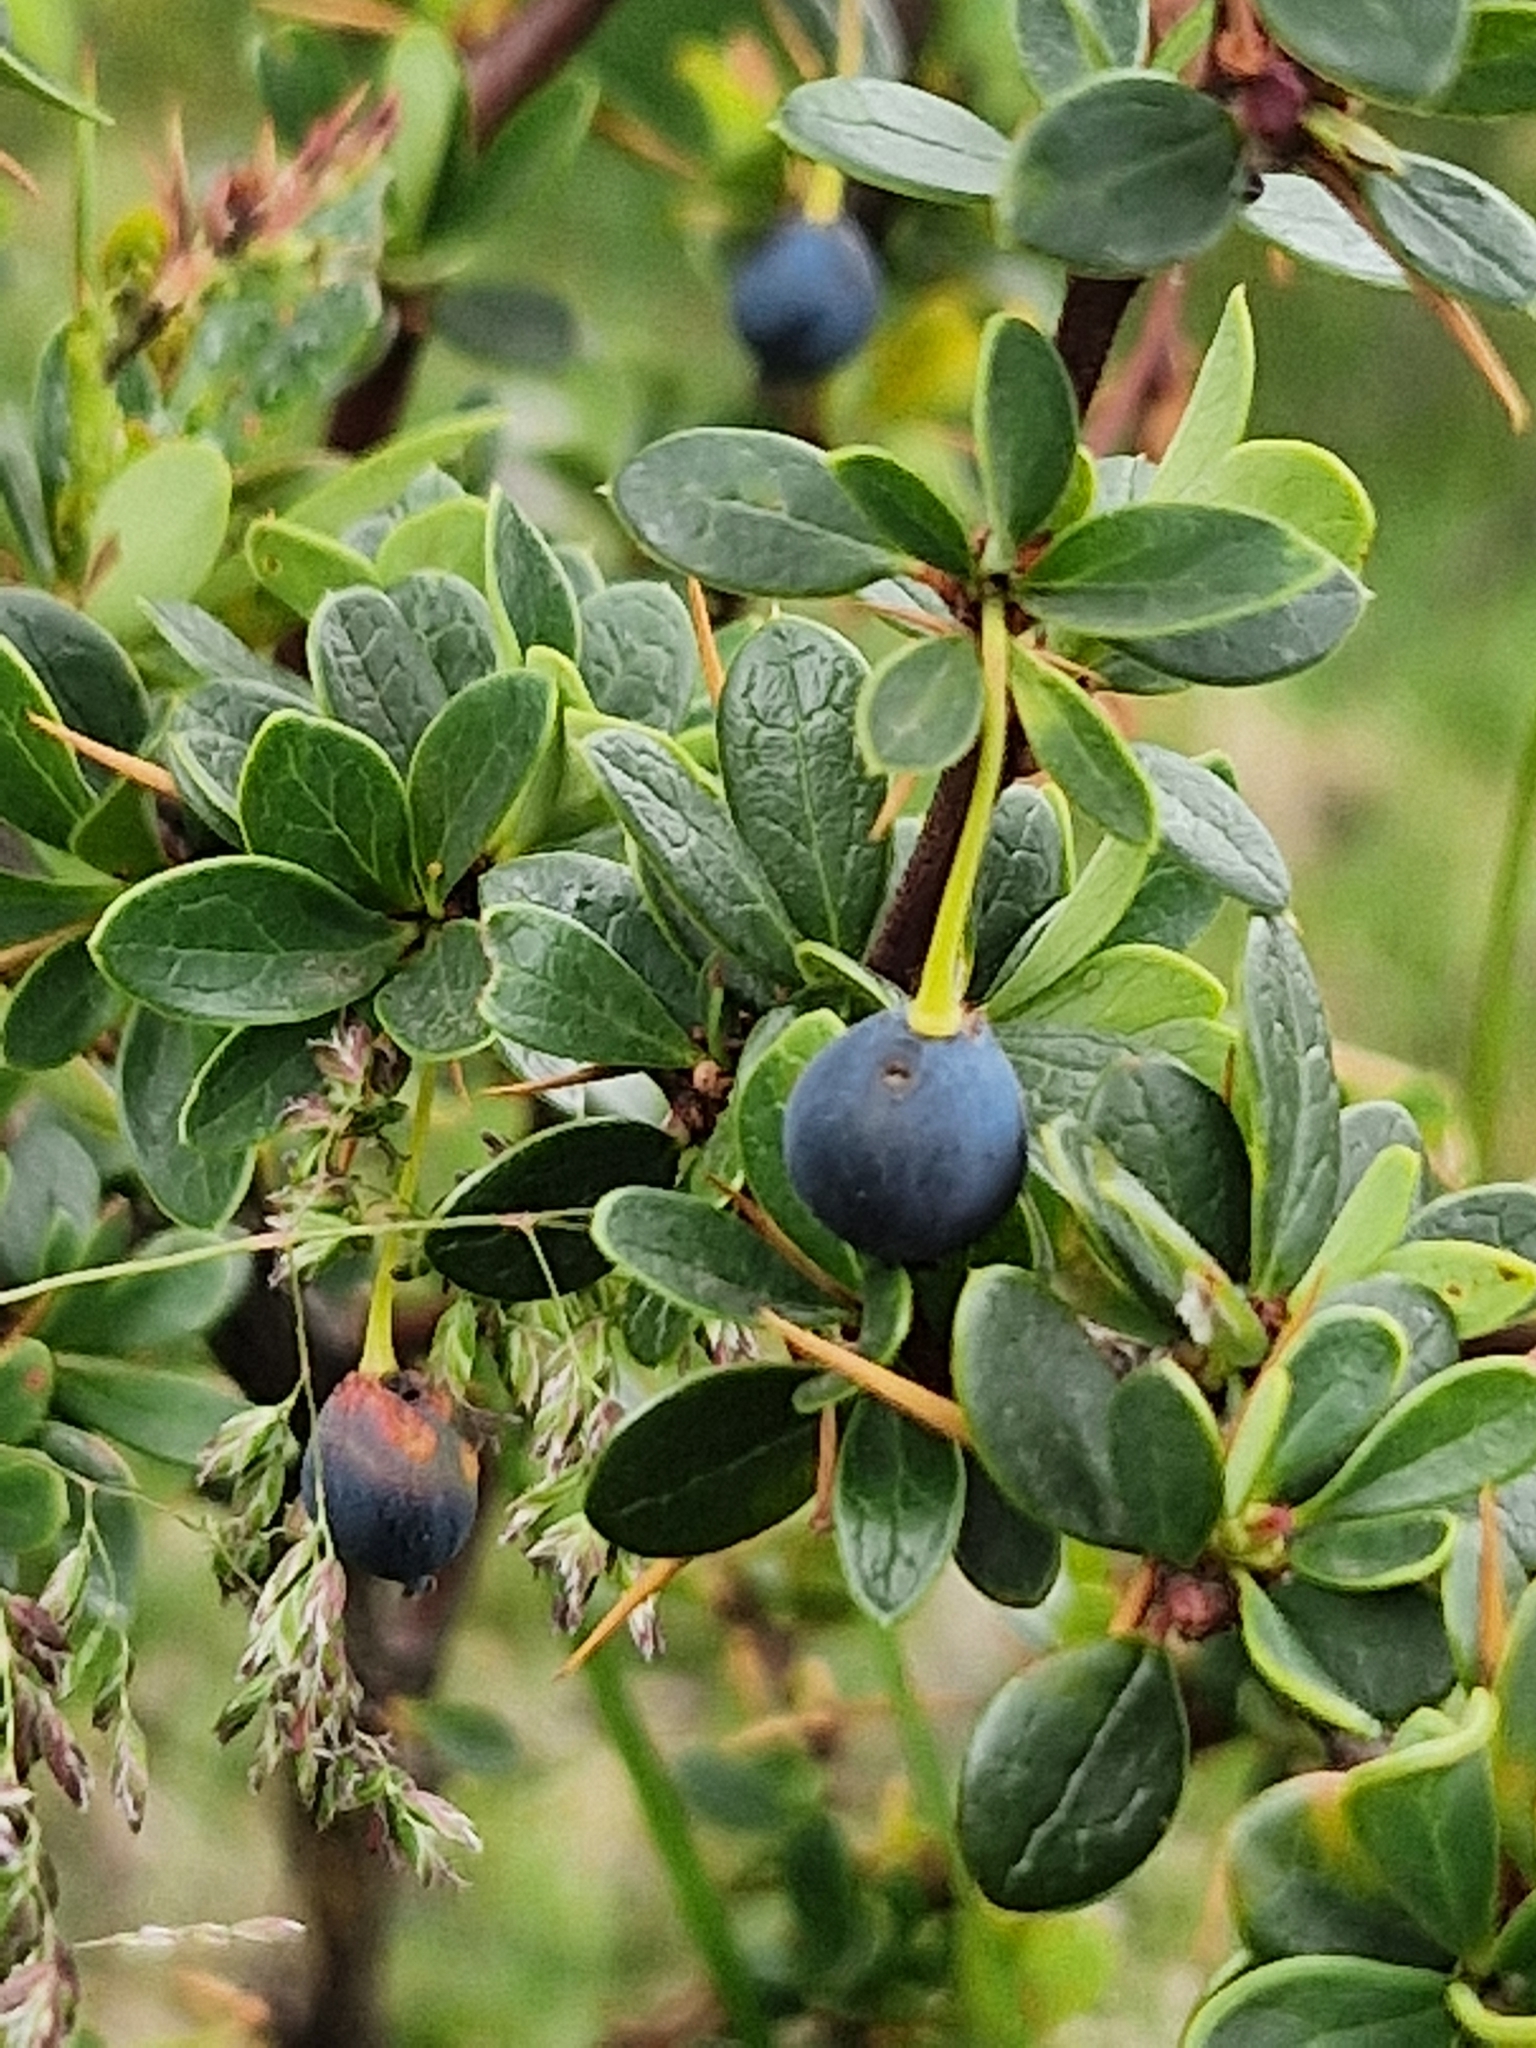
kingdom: Plantae
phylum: Tracheophyta
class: Magnoliopsida
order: Ranunculales
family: Berberidaceae
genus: Berberis
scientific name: Berberis microphylla
